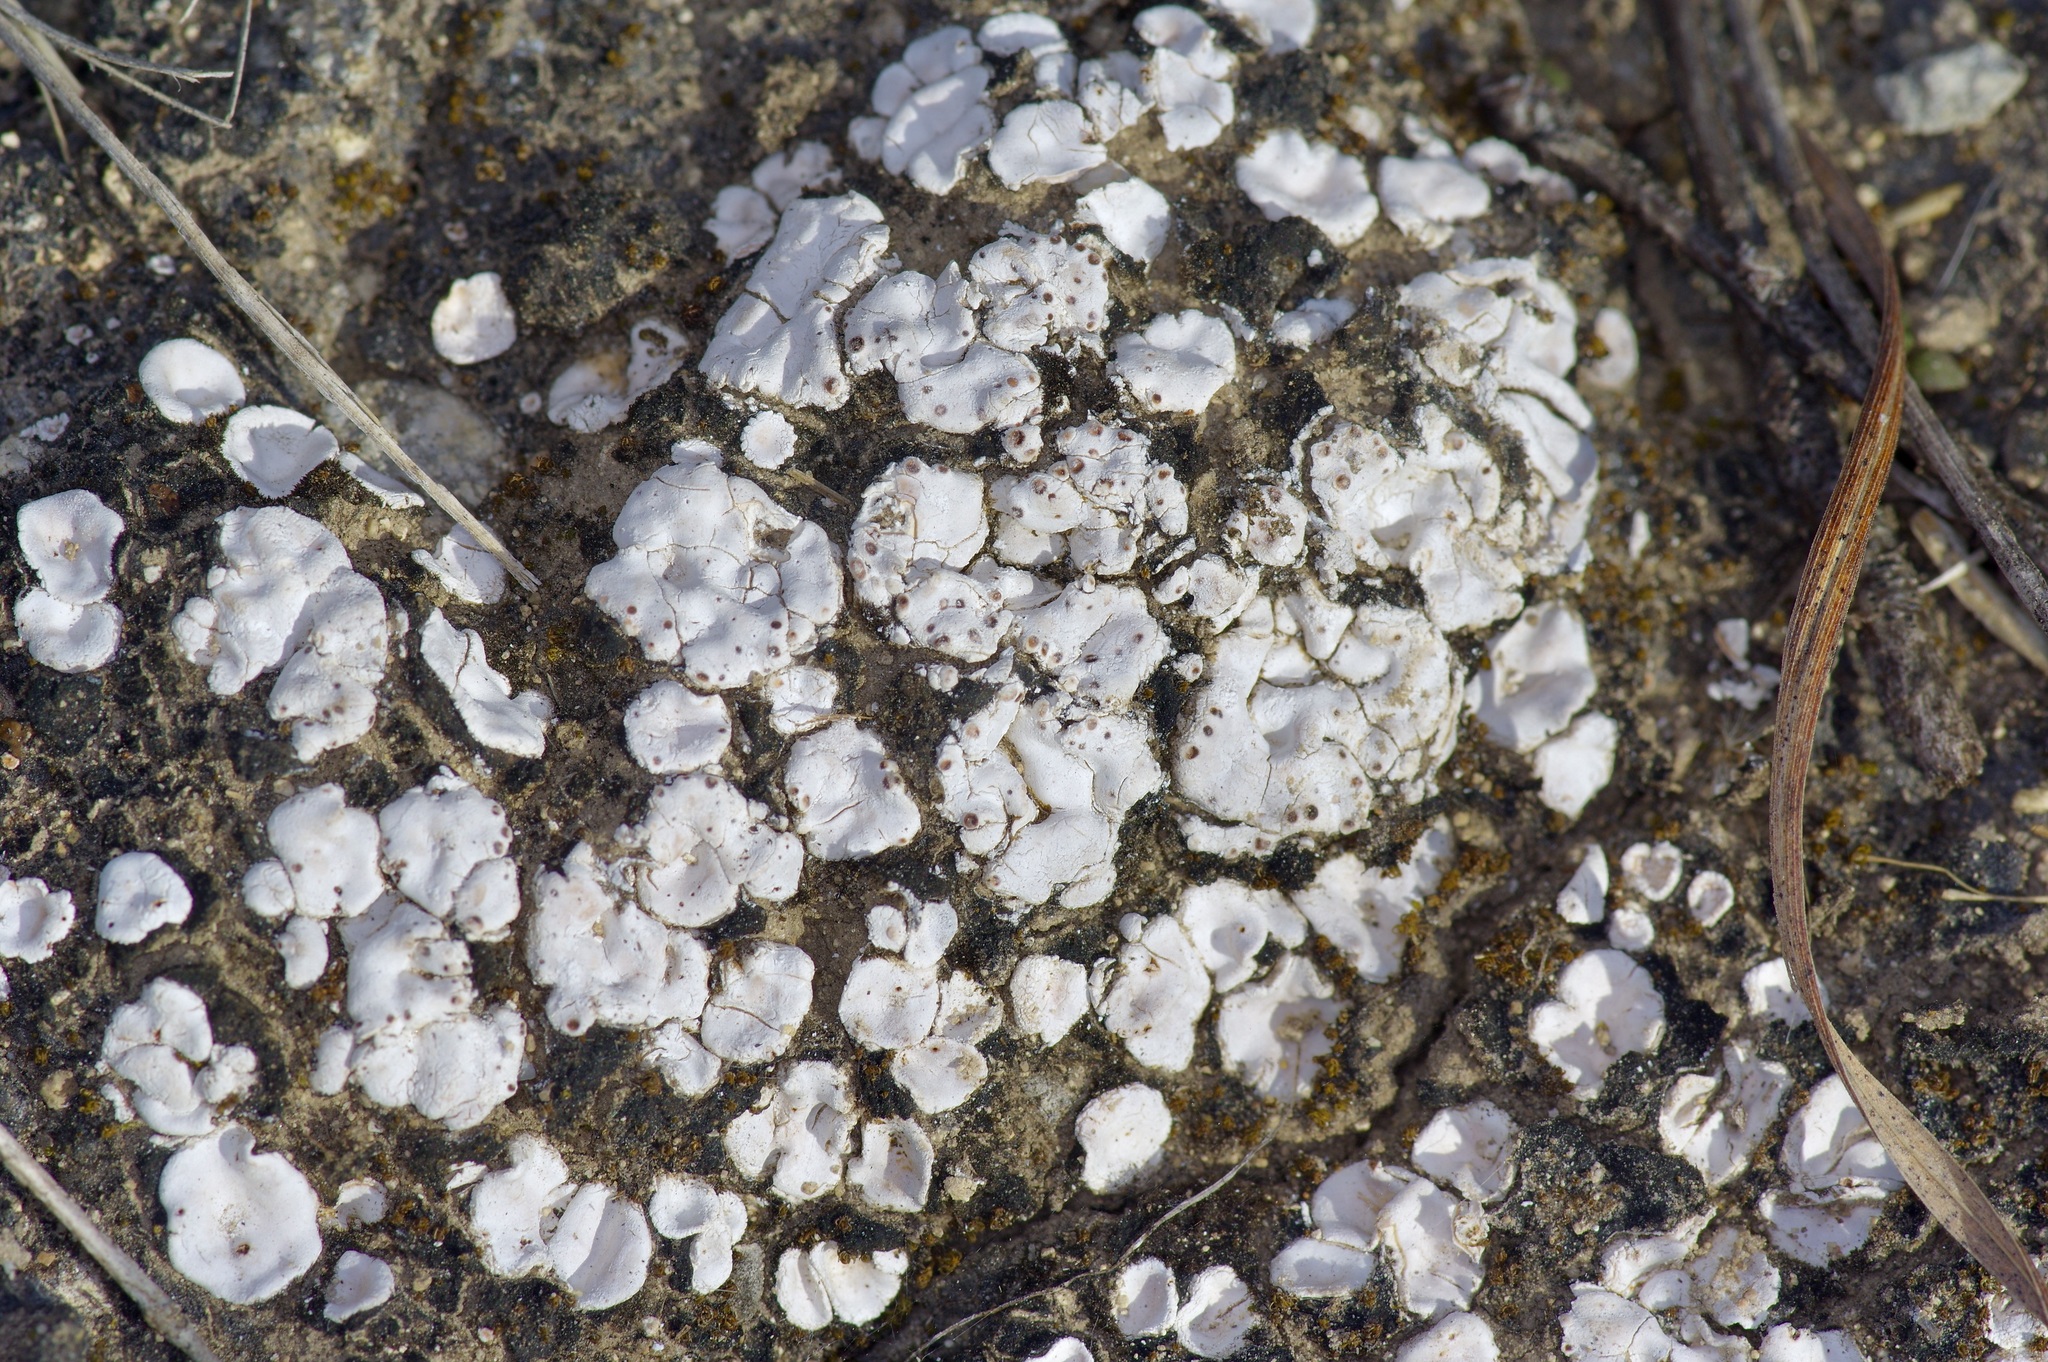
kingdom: Fungi
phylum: Ascomycota
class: Lecanoromycetes
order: Lecanorales
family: Psoraceae
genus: Psora
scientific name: Psora crenata
